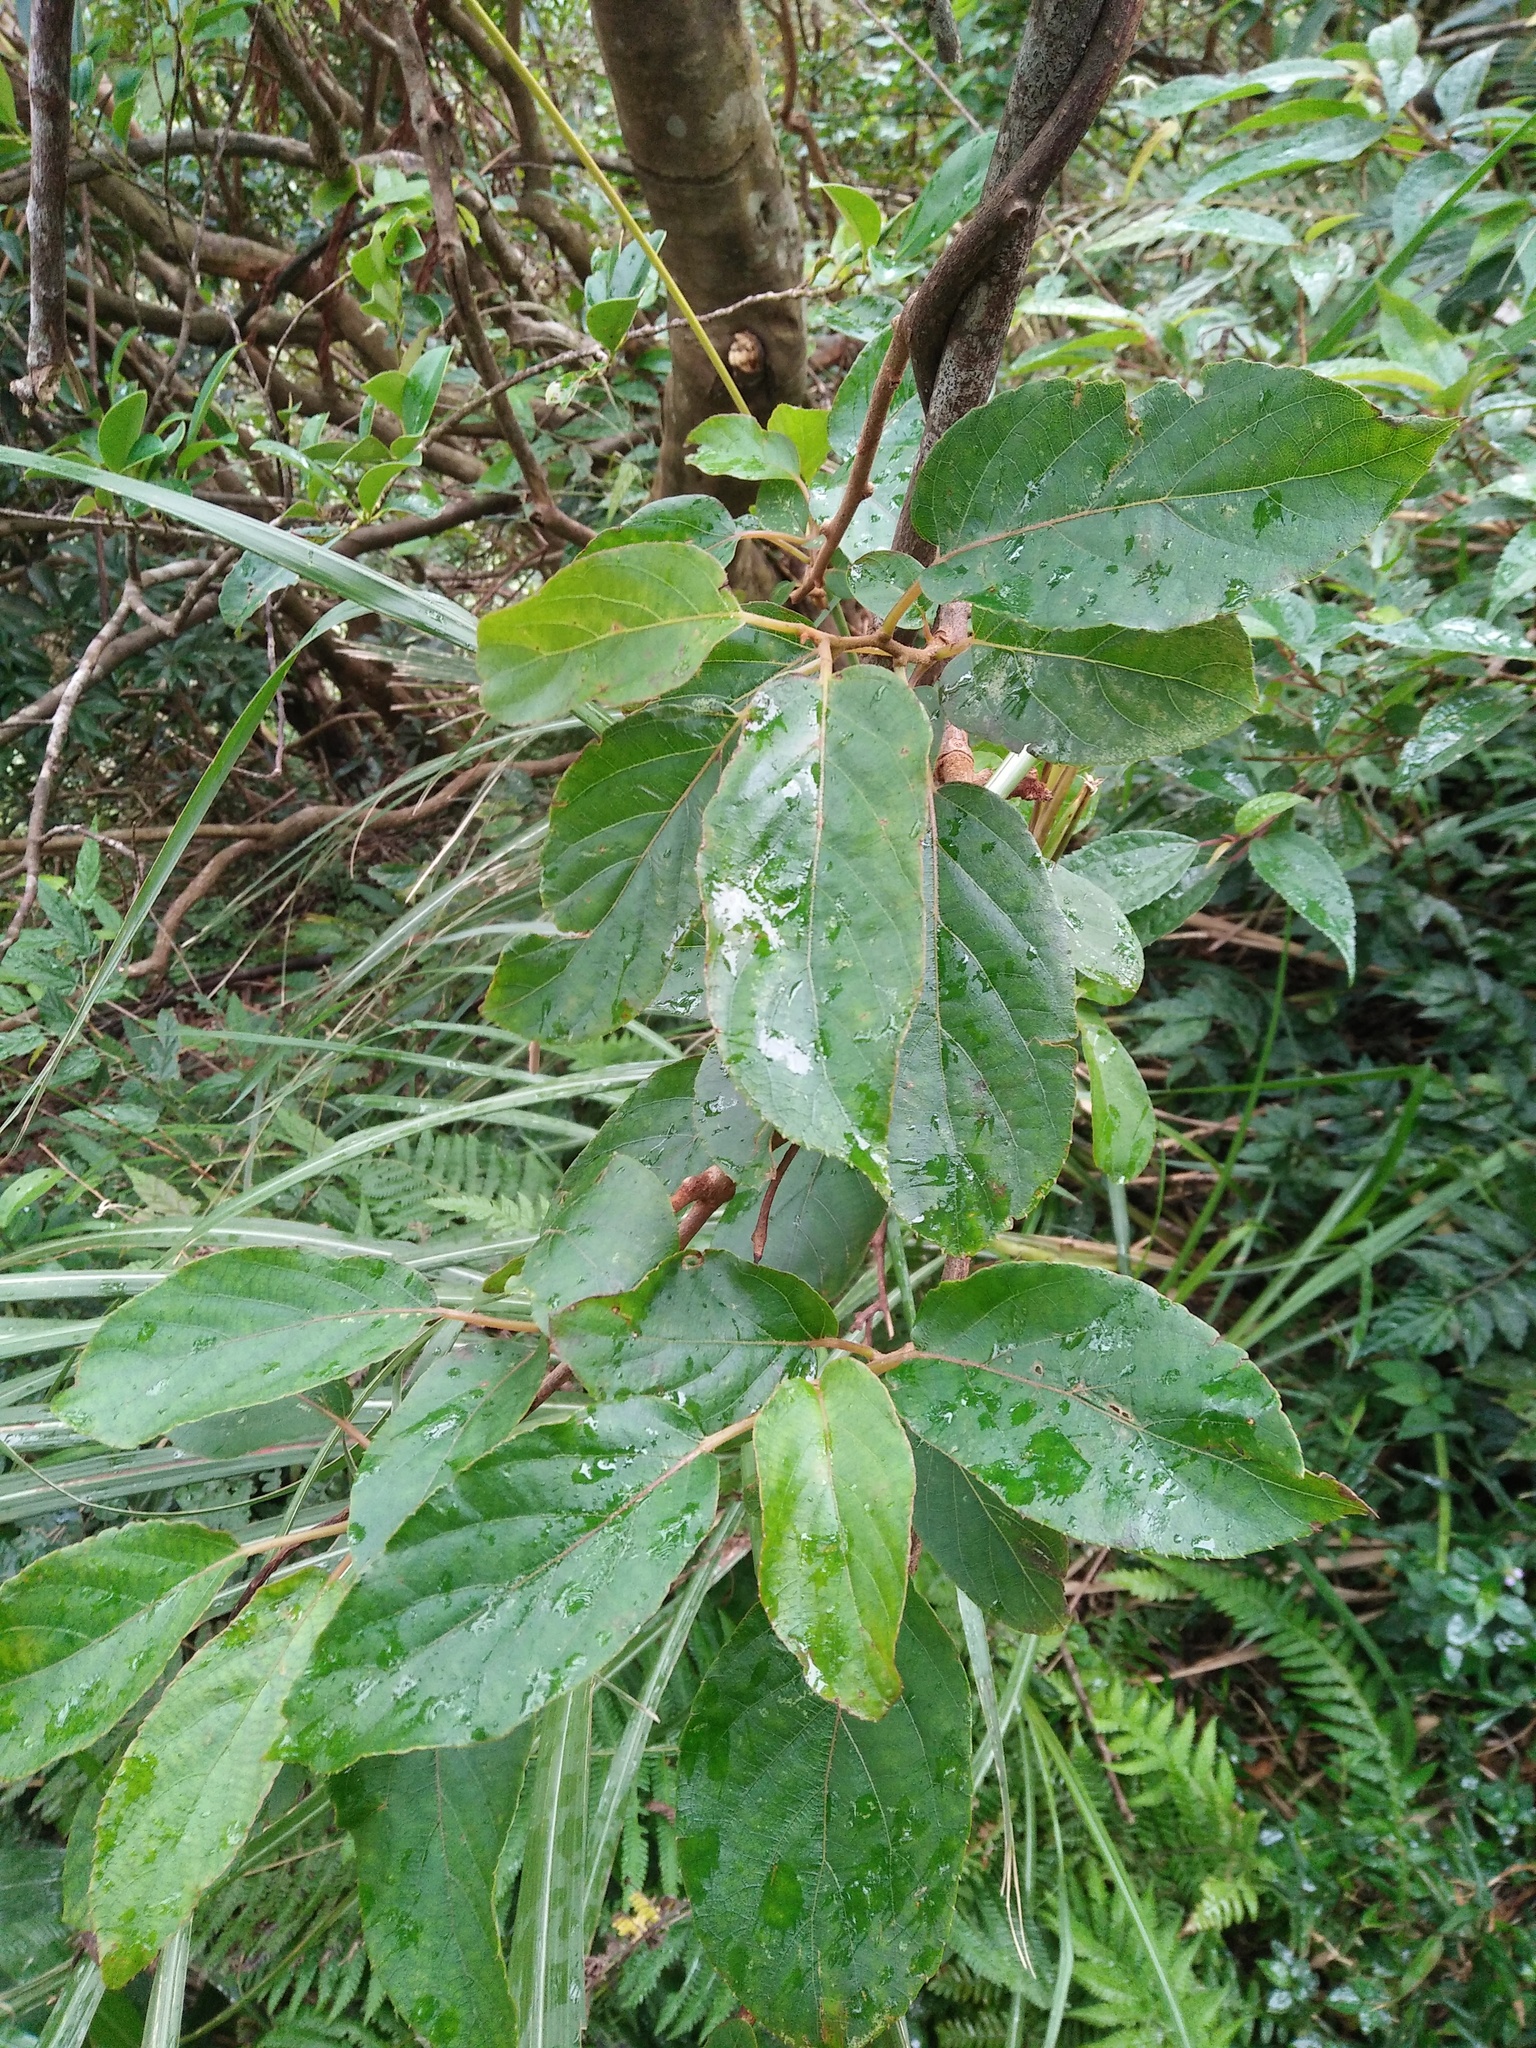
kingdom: Plantae
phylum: Tracheophyta
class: Magnoliopsida
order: Ericales
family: Actinidiaceae
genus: Actinidia
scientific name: Actinidia rufa
